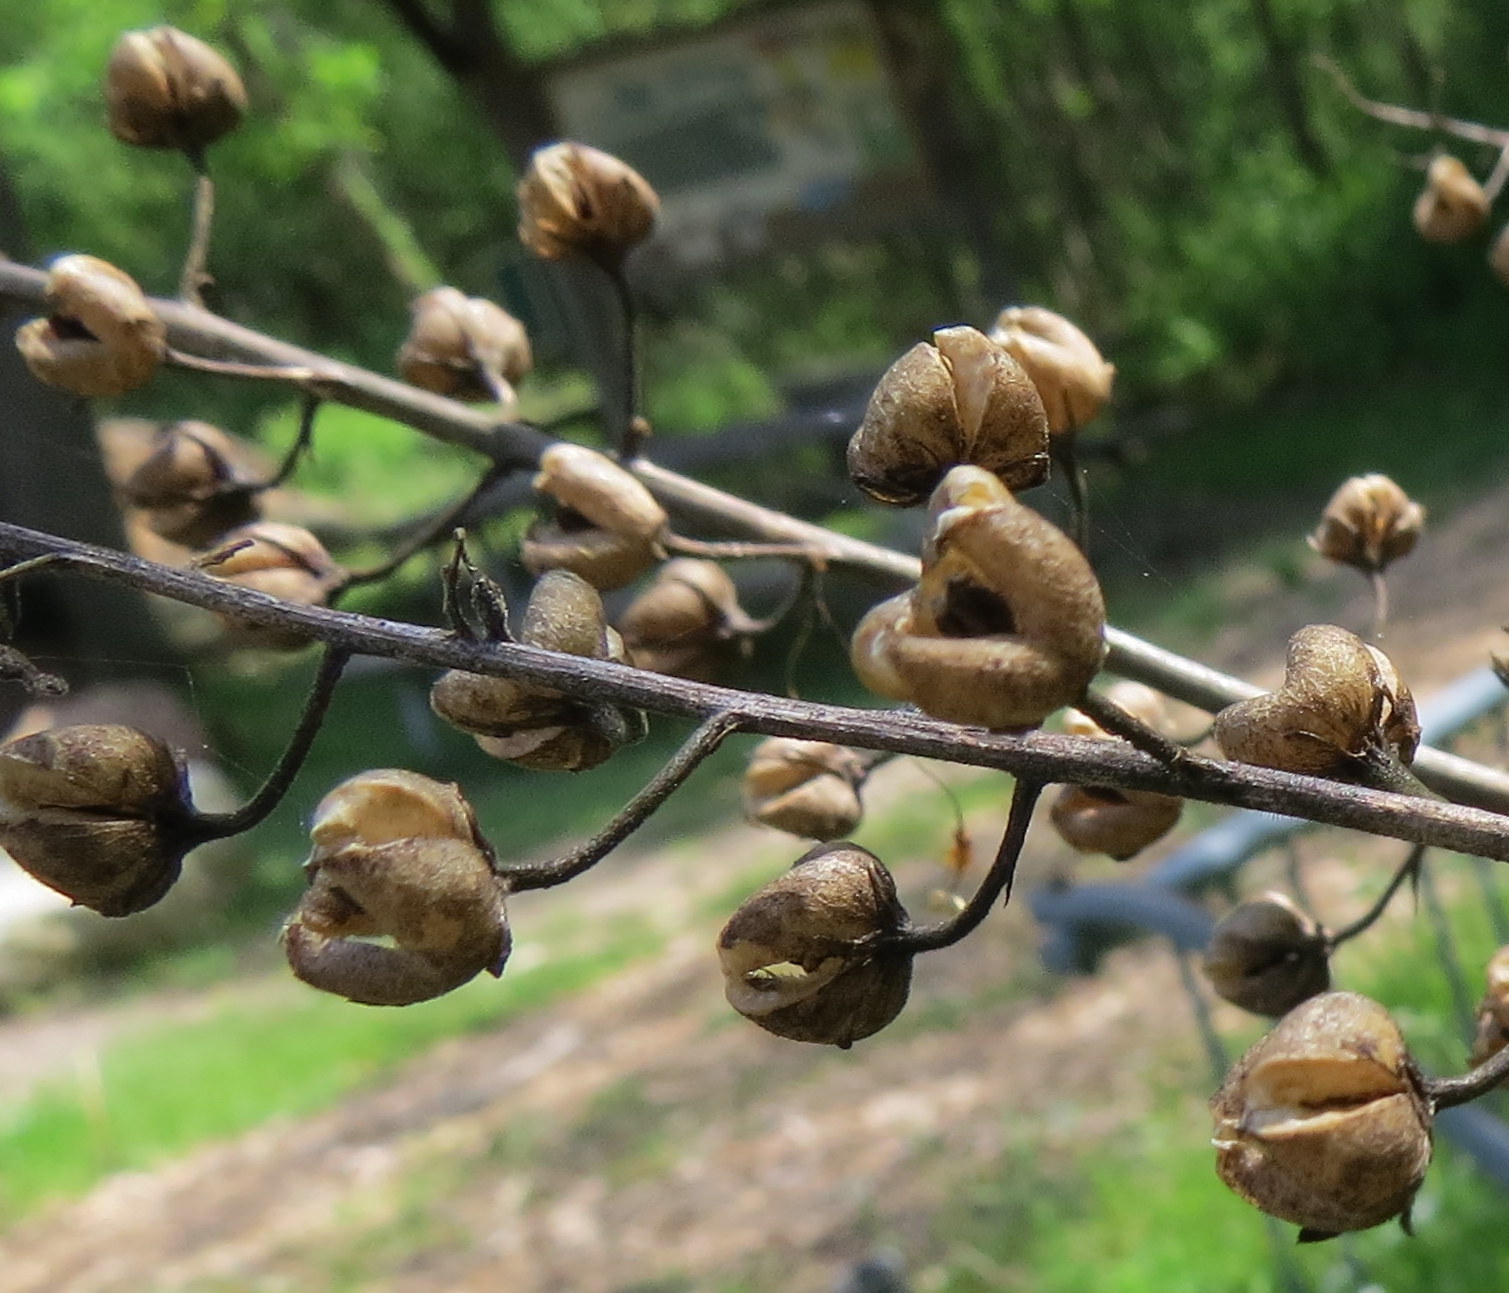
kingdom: Plantae
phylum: Tracheophyta
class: Magnoliopsida
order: Lamiales
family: Scrophulariaceae
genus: Verbascum
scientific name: Verbascum blattaria
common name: Moth mullein
